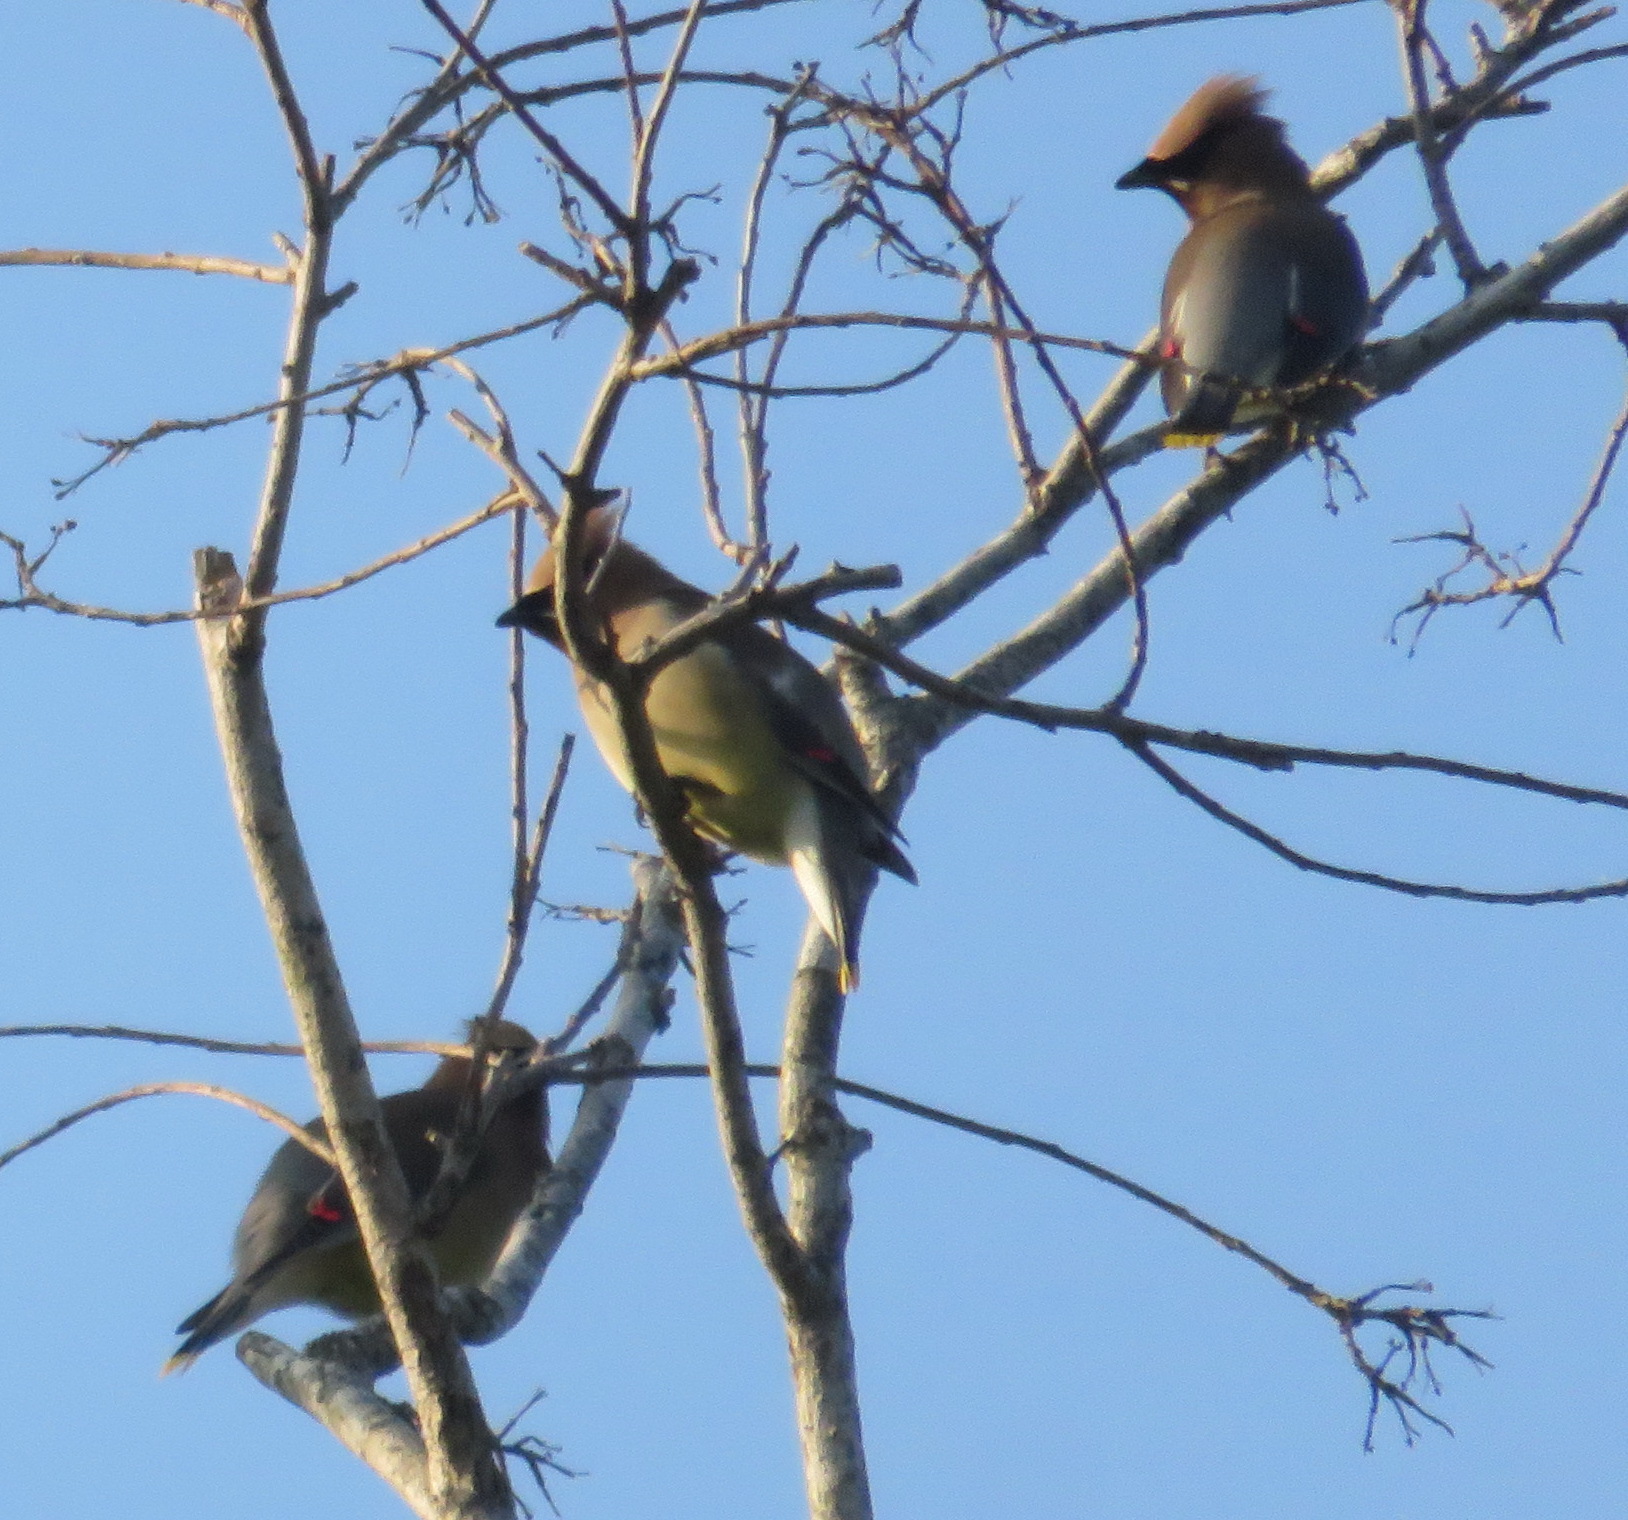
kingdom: Animalia
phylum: Chordata
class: Aves
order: Passeriformes
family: Bombycillidae
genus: Bombycilla
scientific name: Bombycilla cedrorum
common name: Cedar waxwing
